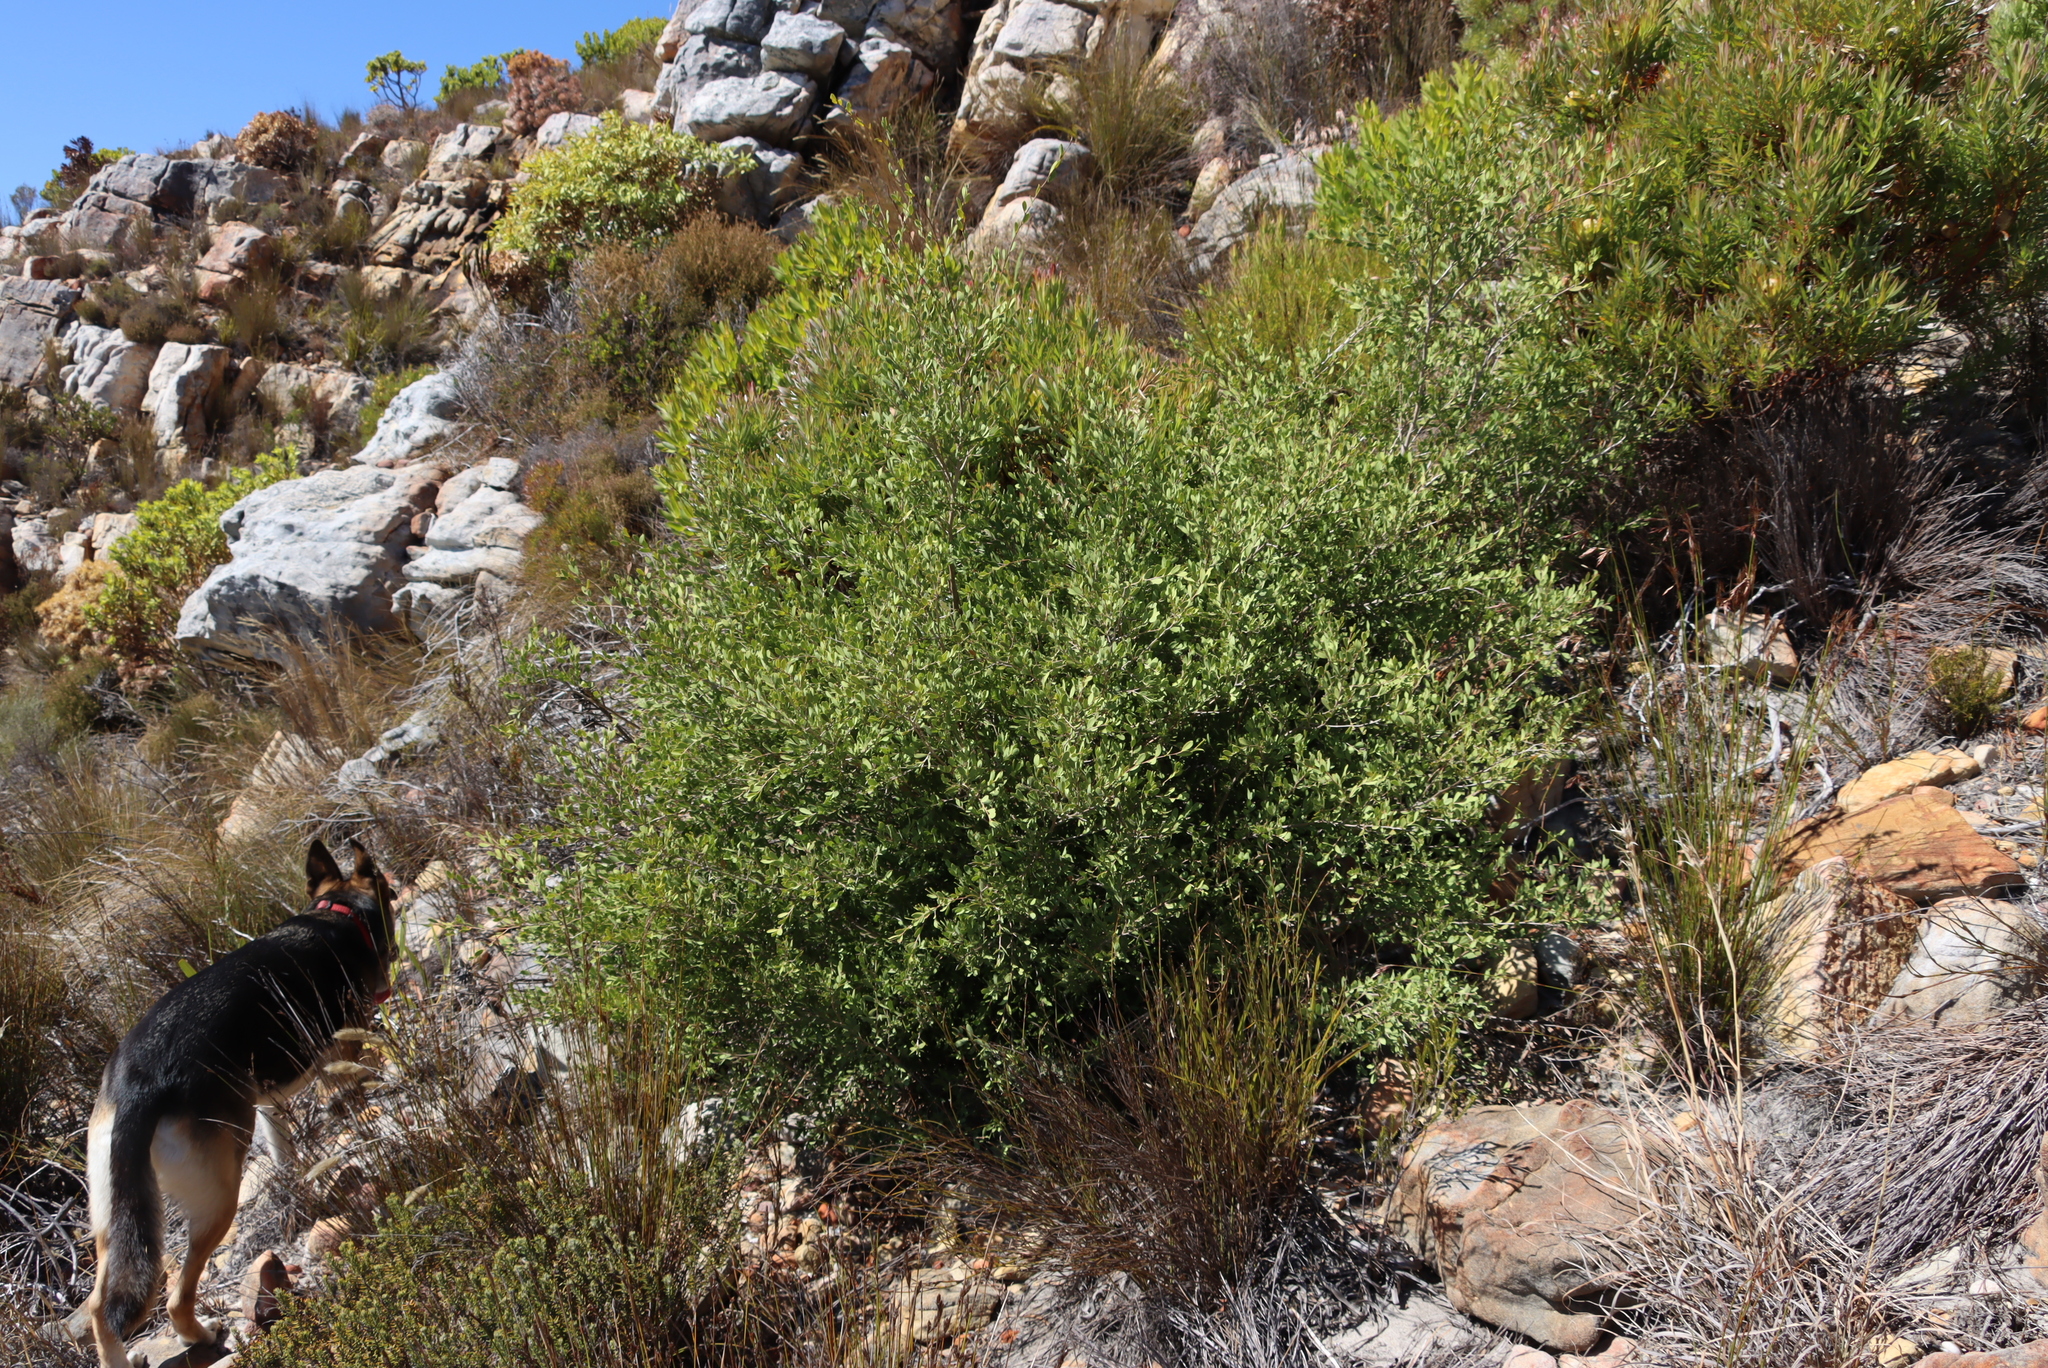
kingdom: Plantae
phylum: Tracheophyta
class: Magnoliopsida
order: Myrtales
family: Myrtaceae
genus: Leptospermum
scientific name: Leptospermum laevigatum
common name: Australian teatree
